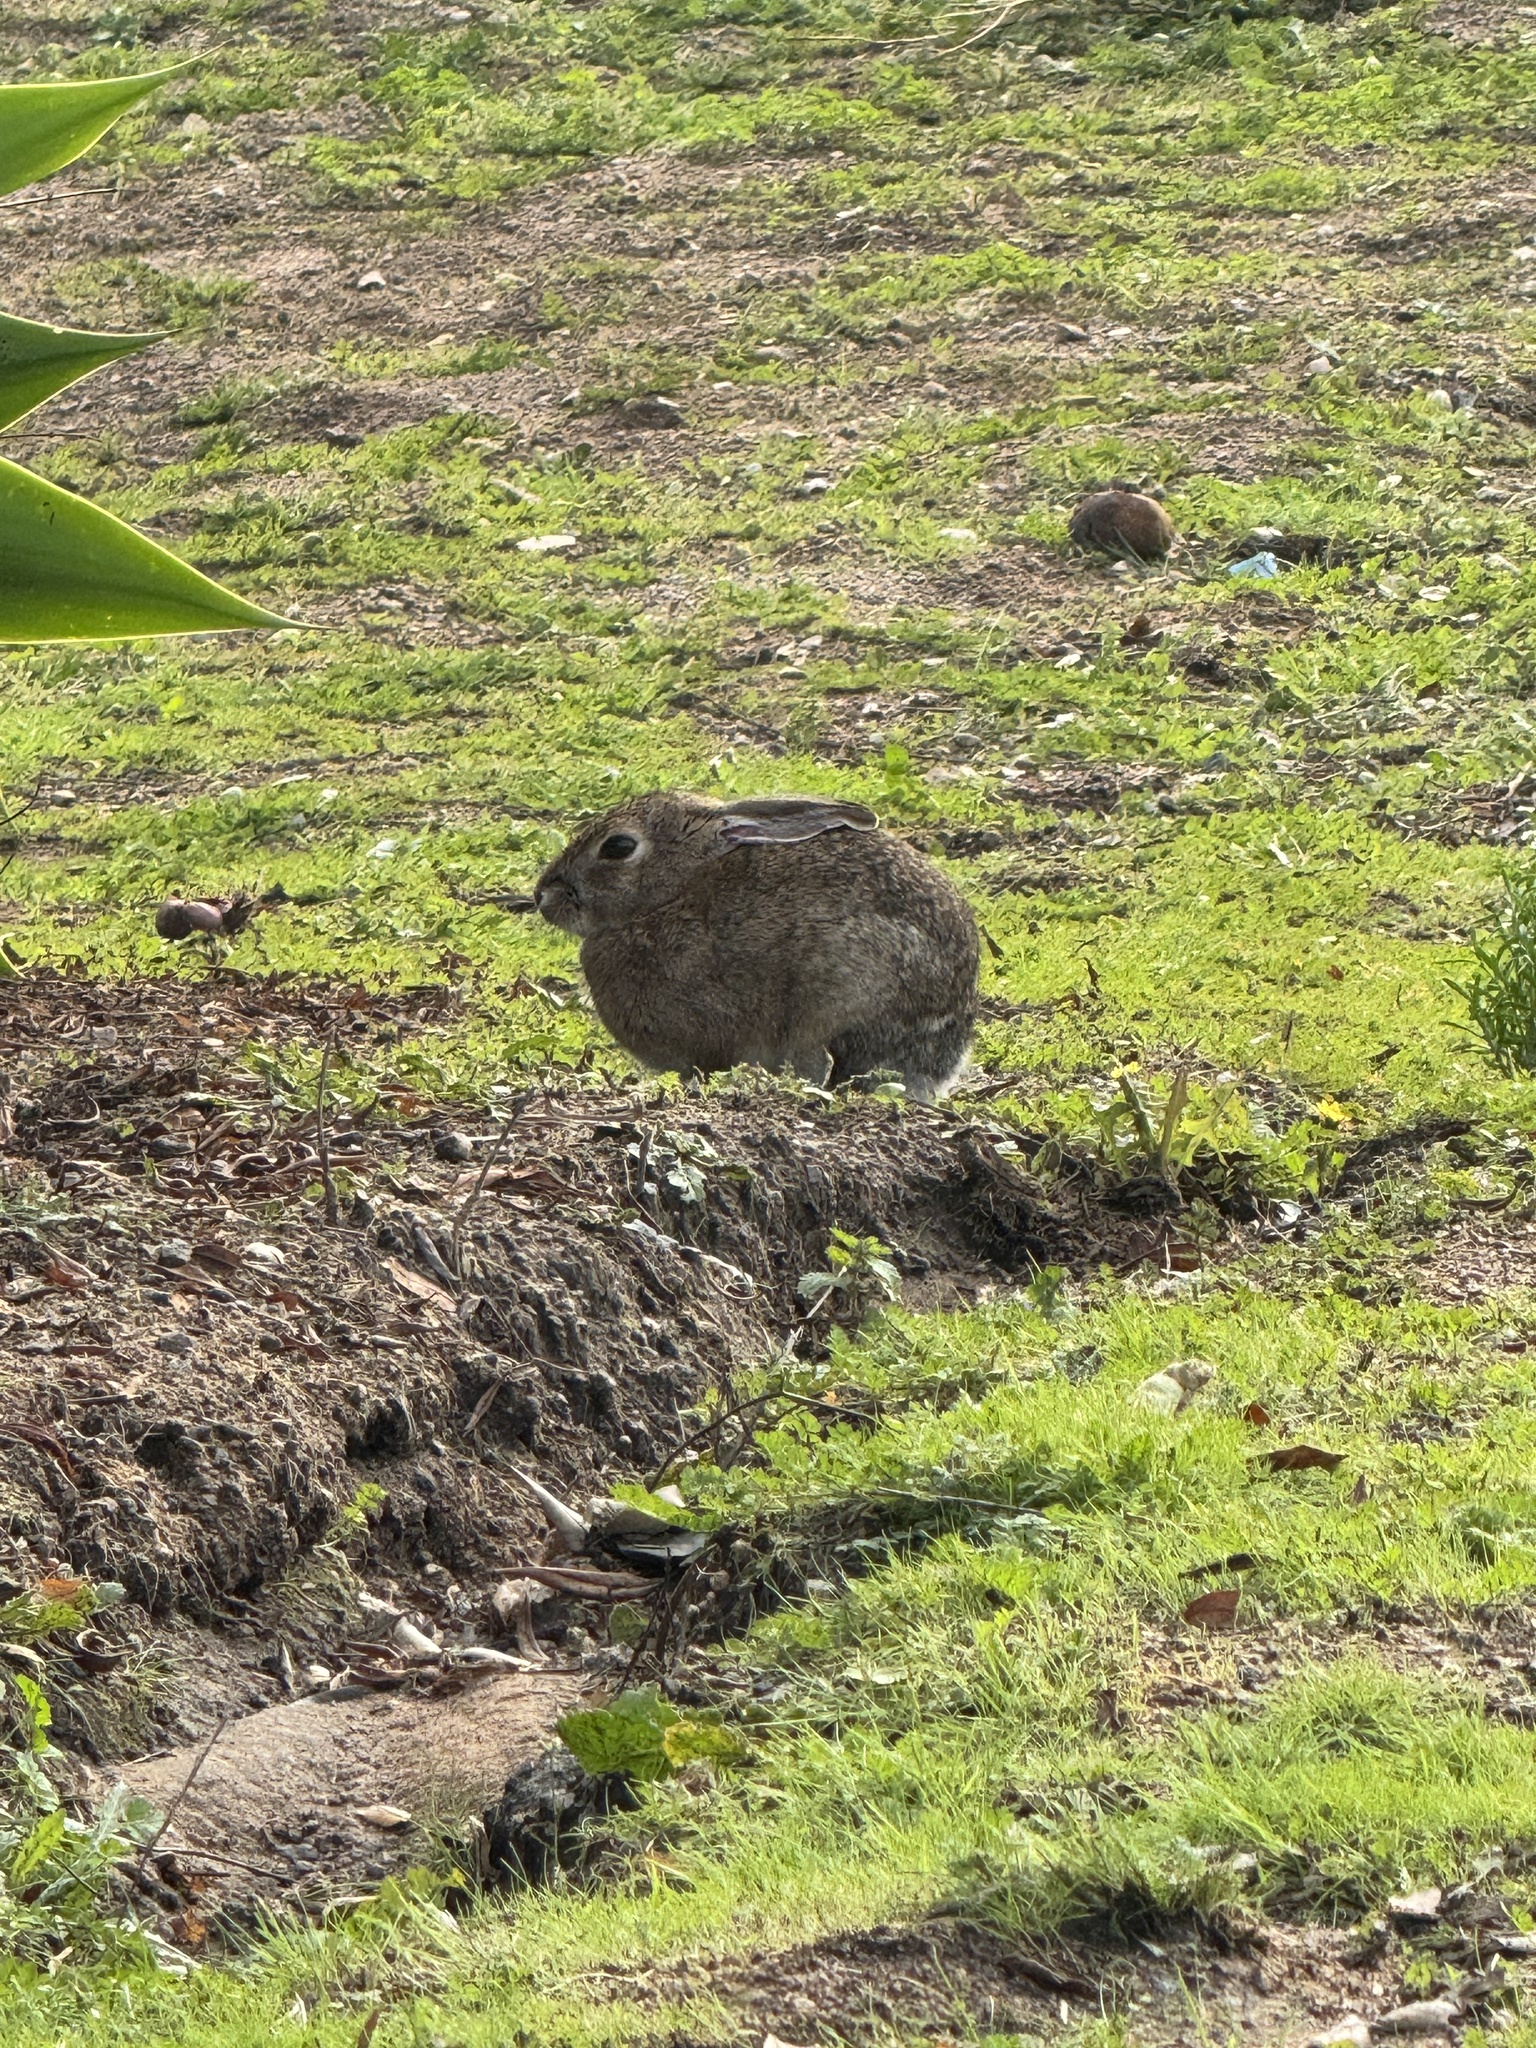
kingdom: Animalia
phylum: Chordata
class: Mammalia
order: Lagomorpha
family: Leporidae
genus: Sylvilagus
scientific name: Sylvilagus audubonii
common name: Desert cottontail
